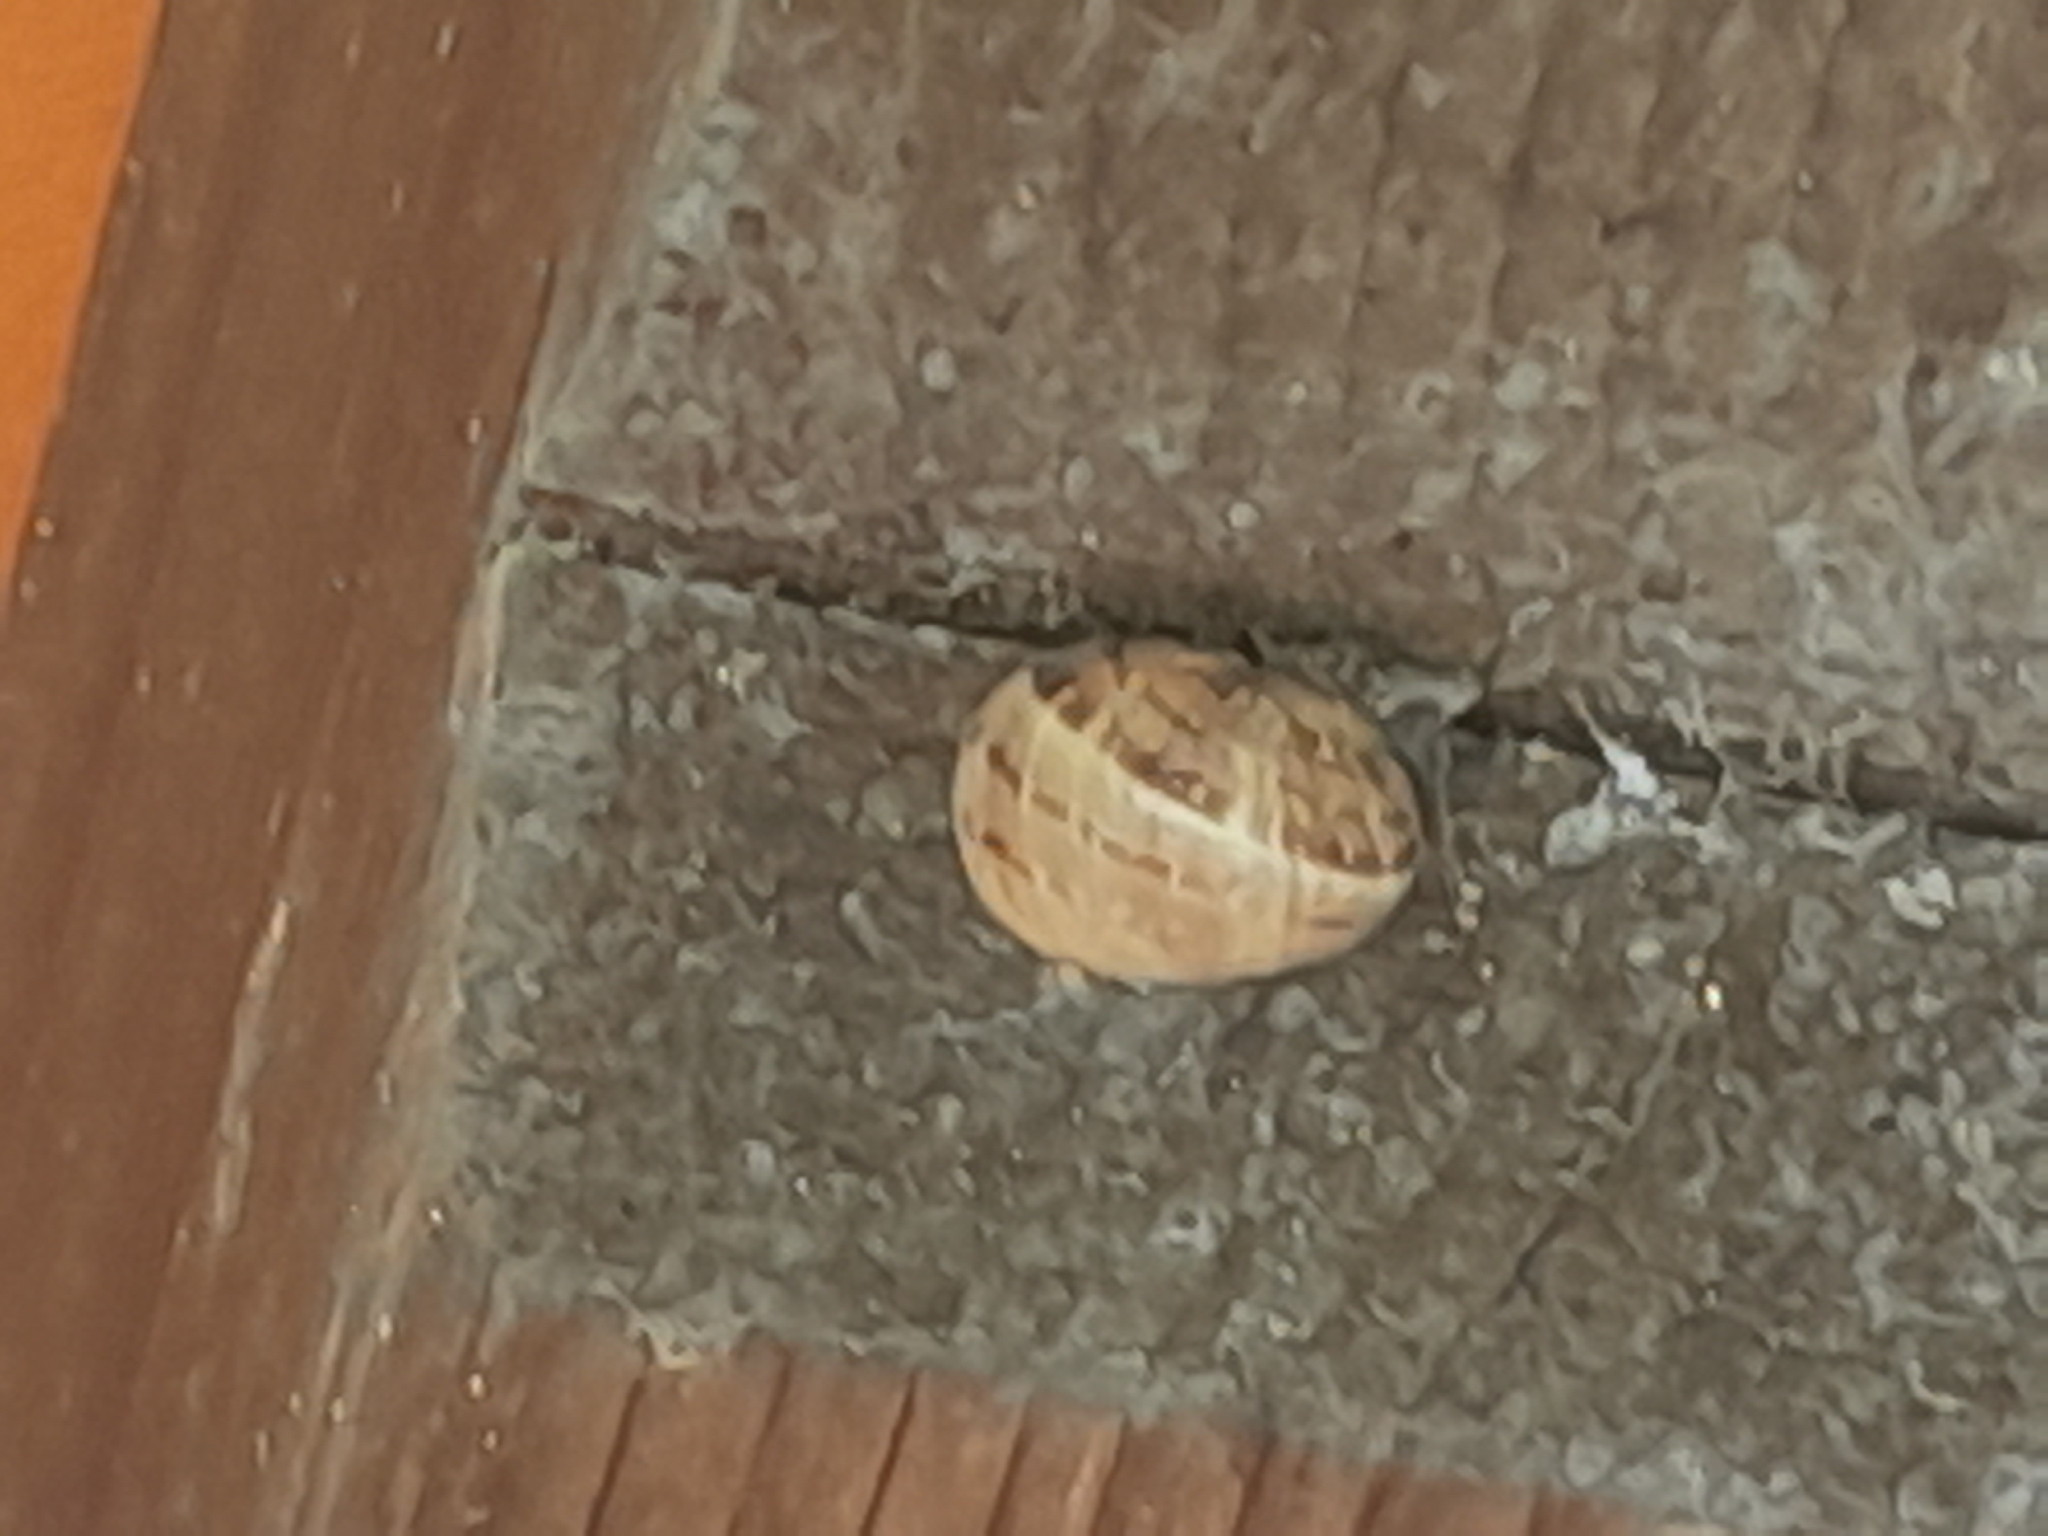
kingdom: Animalia
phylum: Mollusca
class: Gastropoda
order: Stylommatophora
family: Helicidae
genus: Cornu
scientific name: Cornu aspersum
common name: Brown garden snail
